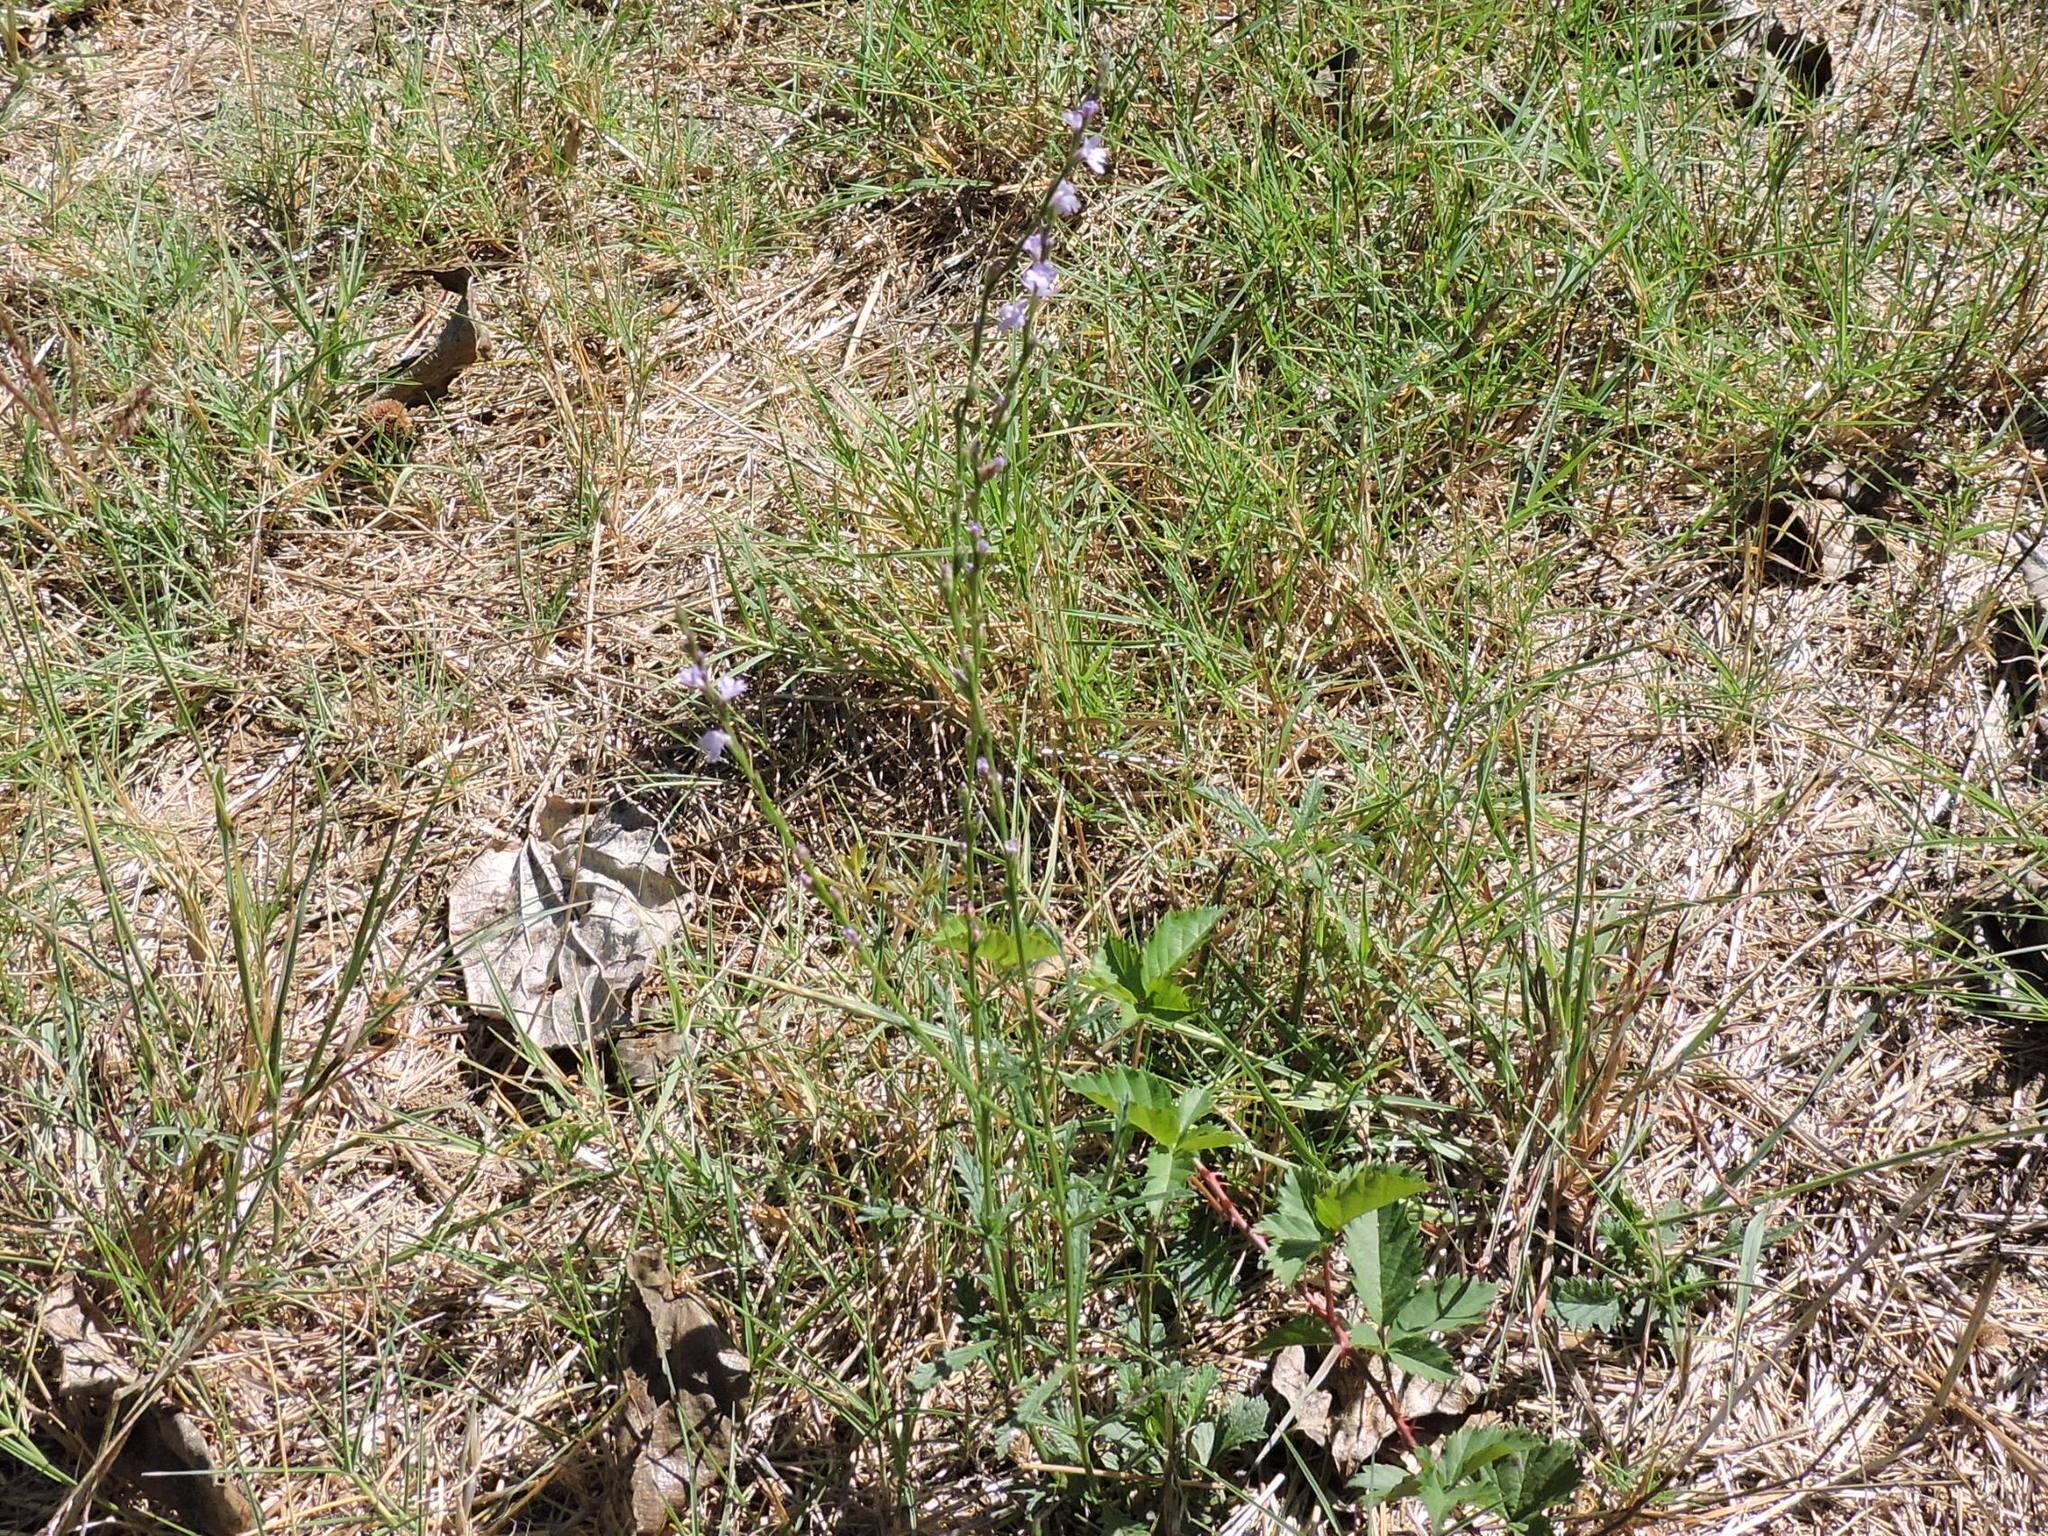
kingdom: Plantae
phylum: Tracheophyta
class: Magnoliopsida
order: Lamiales
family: Verbenaceae
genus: Verbena
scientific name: Verbena halei
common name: Texas vervain
